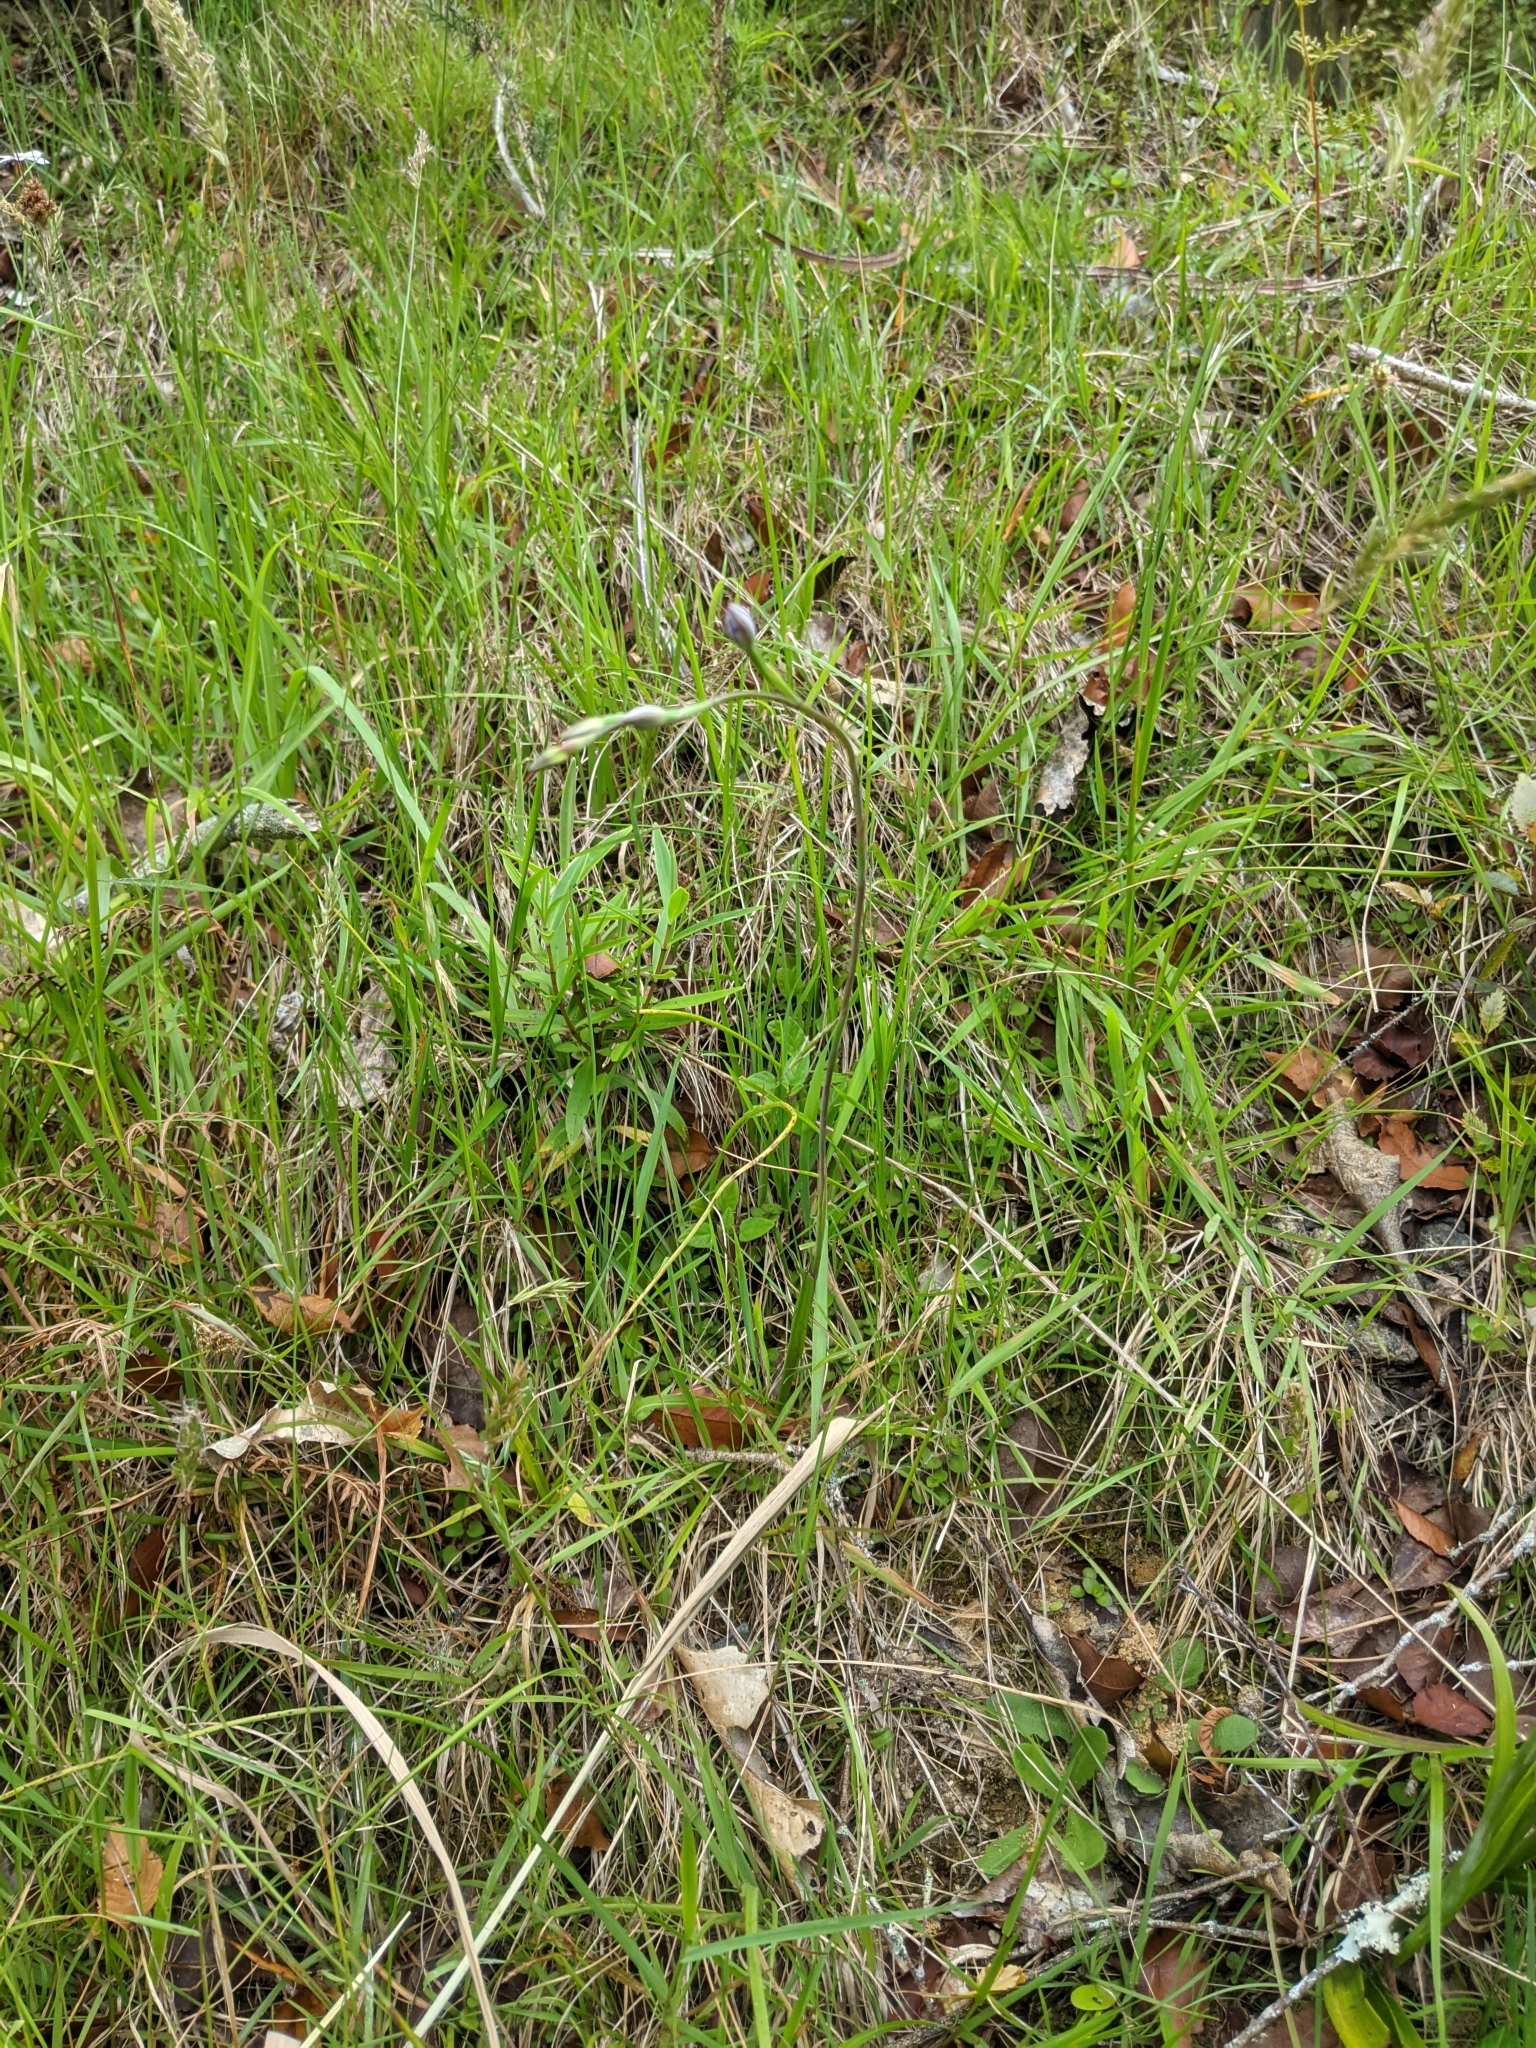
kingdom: Plantae
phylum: Tracheophyta
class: Liliopsida
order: Asparagales
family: Orchidaceae
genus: Thelymitra
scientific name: Thelymitra pauciflora
